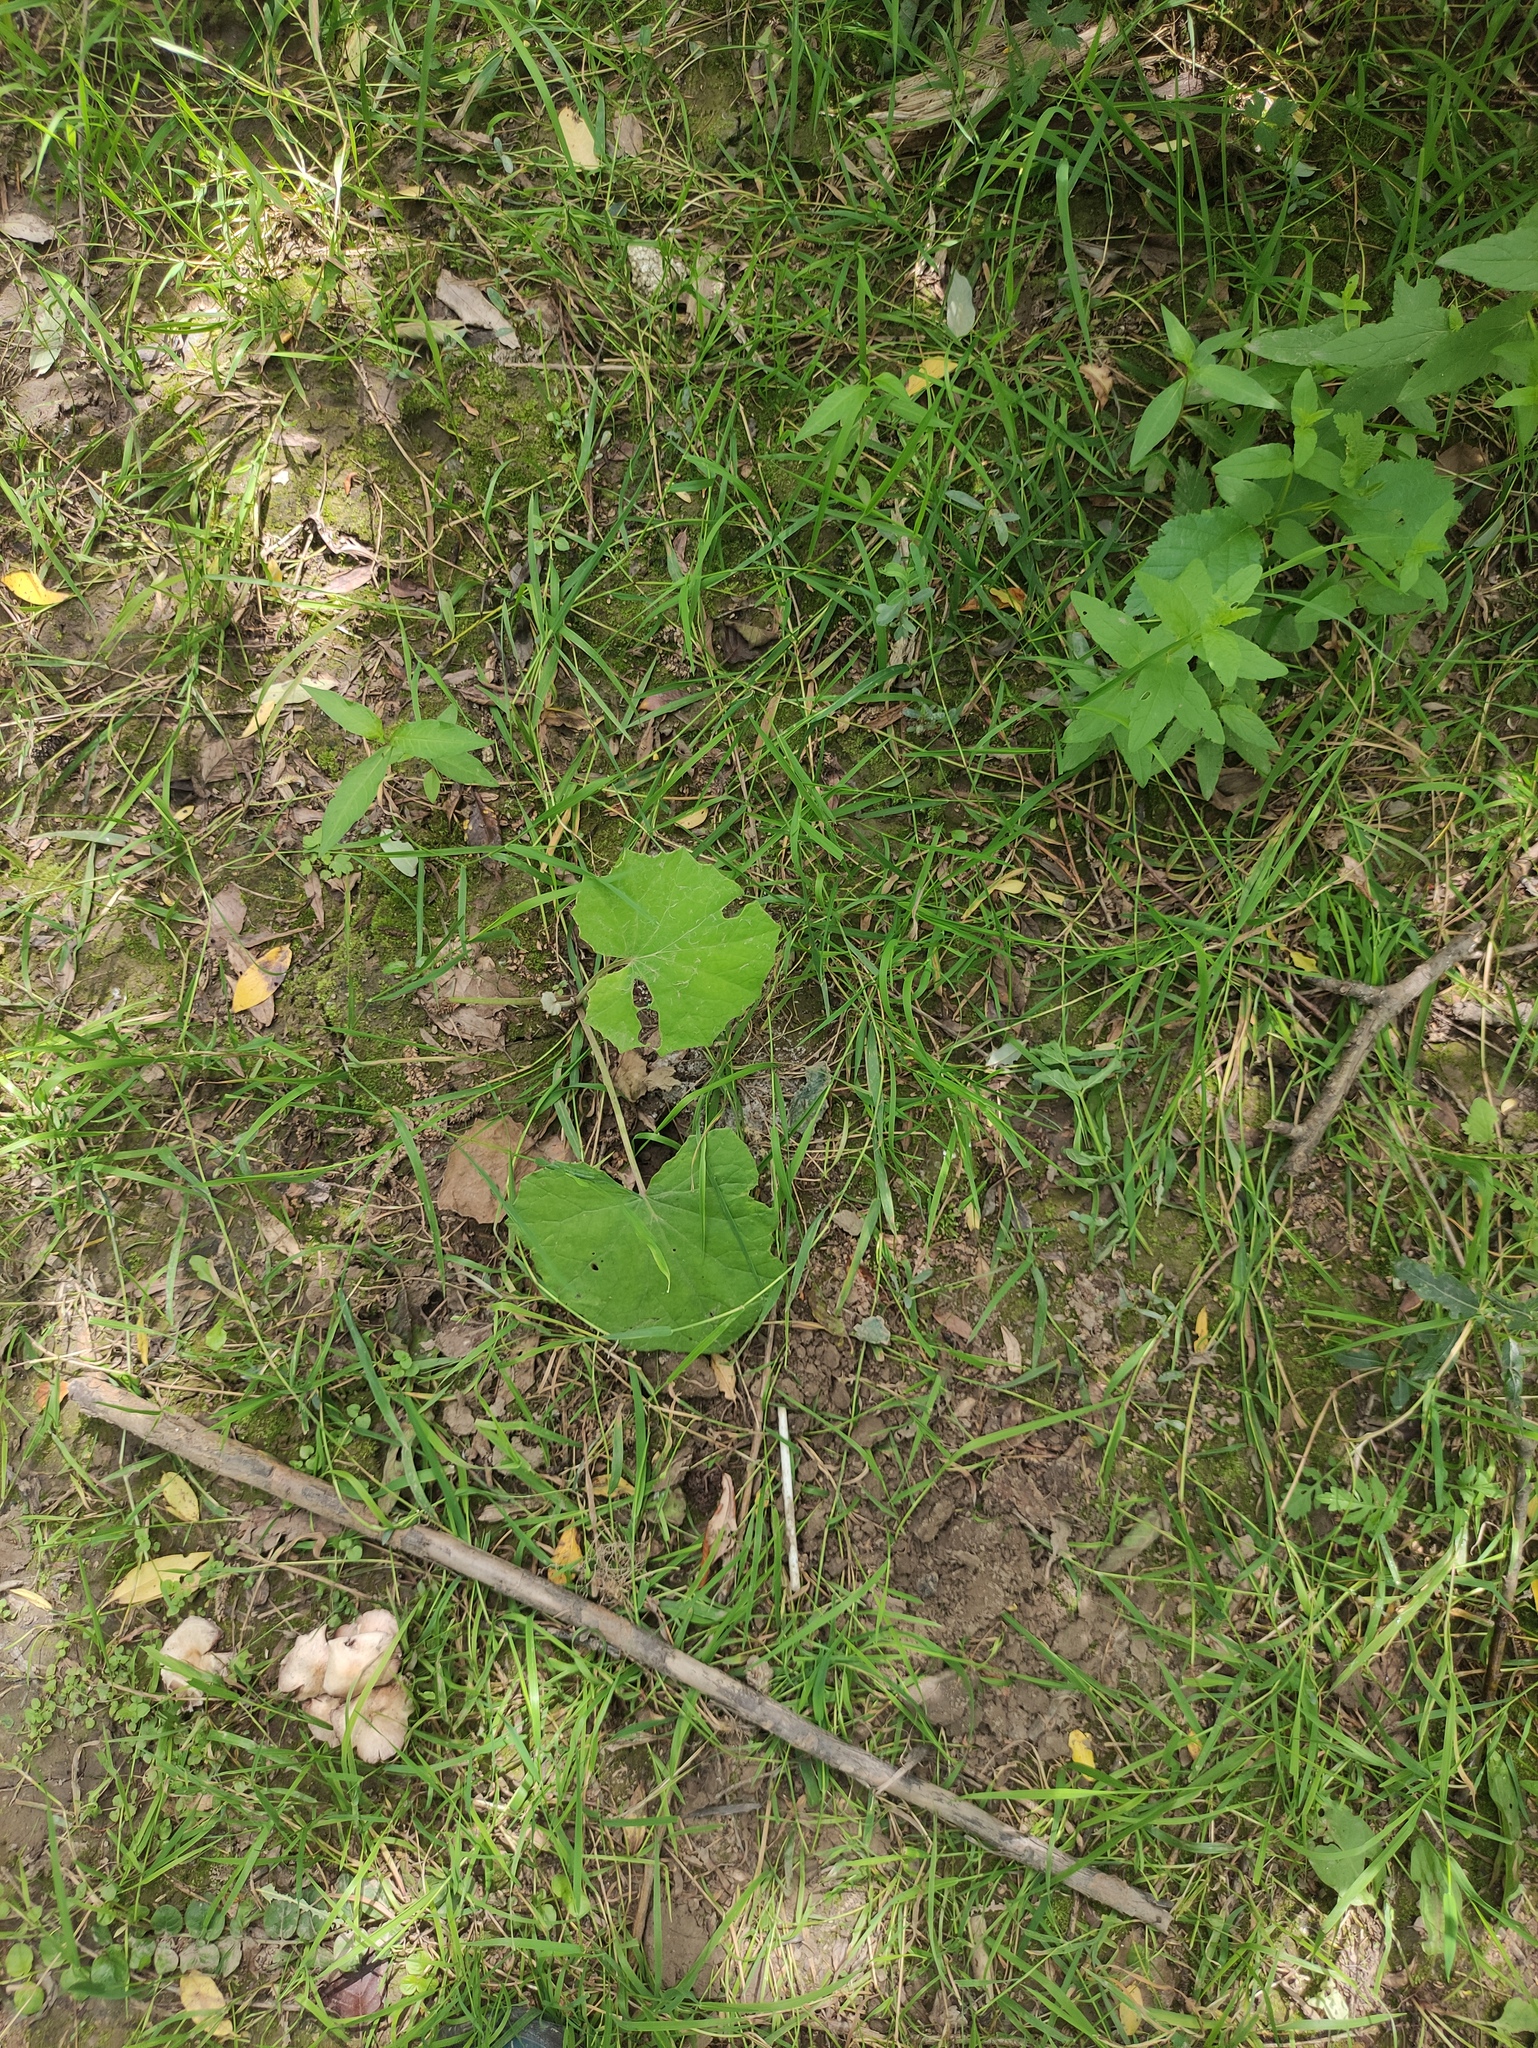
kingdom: Plantae
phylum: Tracheophyta
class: Magnoliopsida
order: Asterales
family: Asteraceae
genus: Tussilago
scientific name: Tussilago farfara
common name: Coltsfoot
